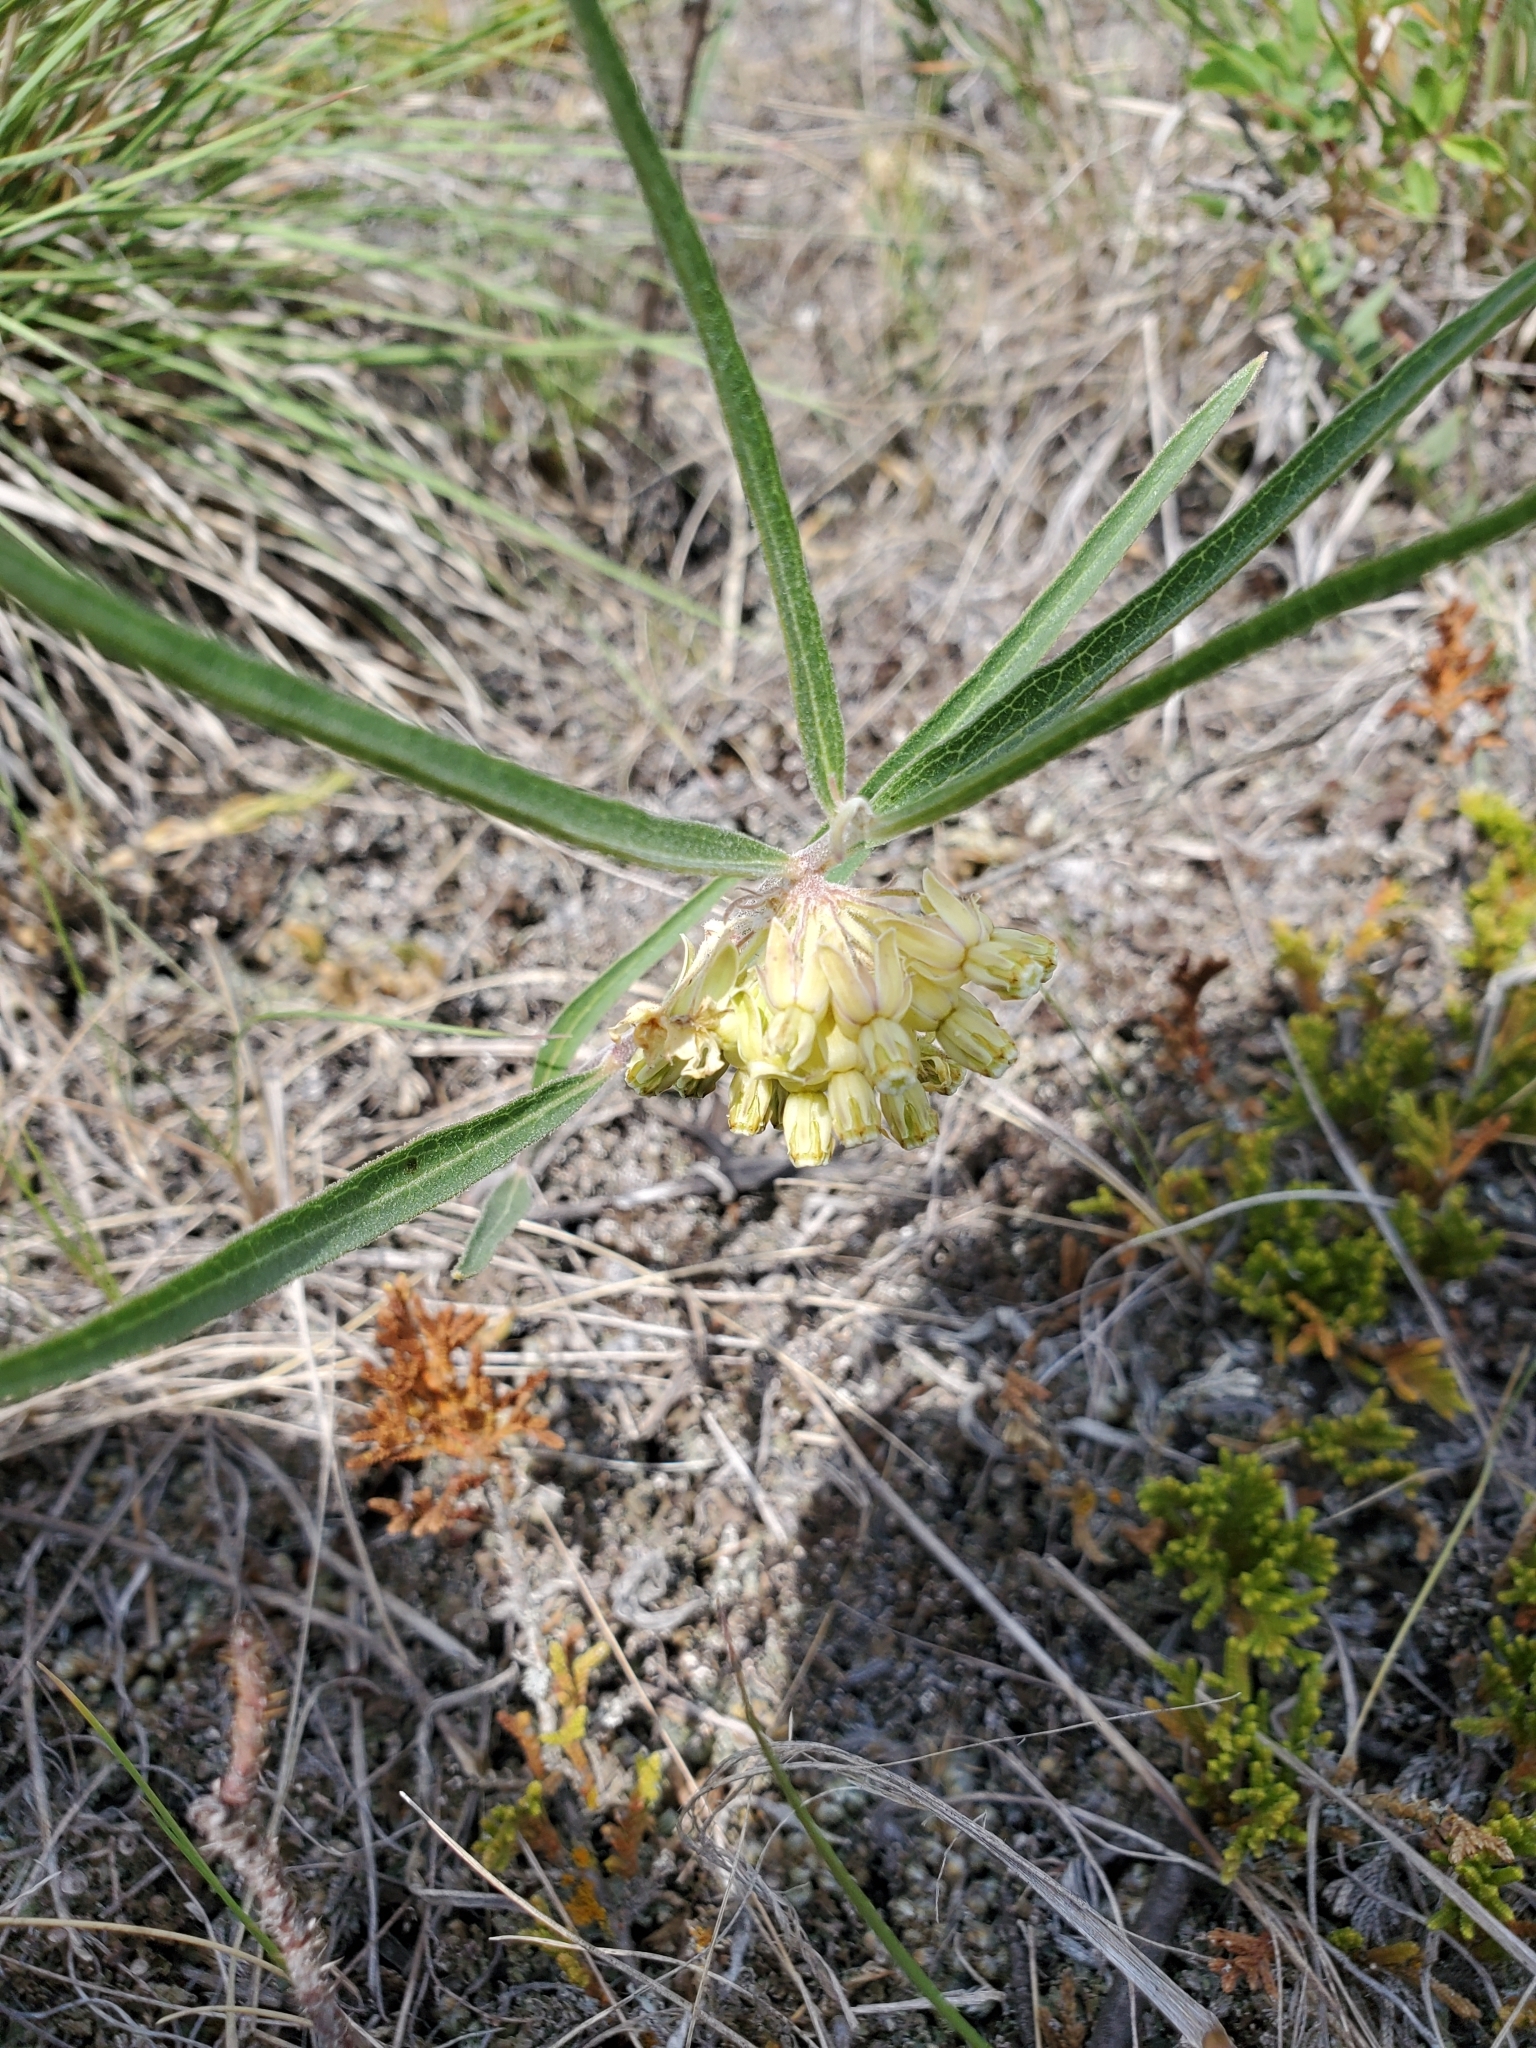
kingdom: Plantae
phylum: Tracheophyta
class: Magnoliopsida
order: Gentianales
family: Apocynaceae
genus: Asclepias
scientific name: Asclepias viridiflora
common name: Green comet milkweed
